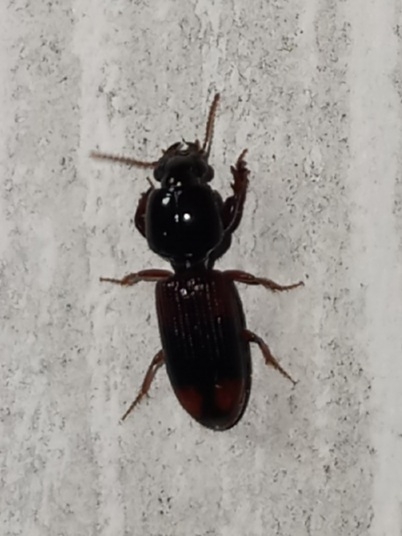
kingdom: Animalia
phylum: Arthropoda
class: Insecta
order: Coleoptera
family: Carabidae
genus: Clivina
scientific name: Clivina bipustulata
